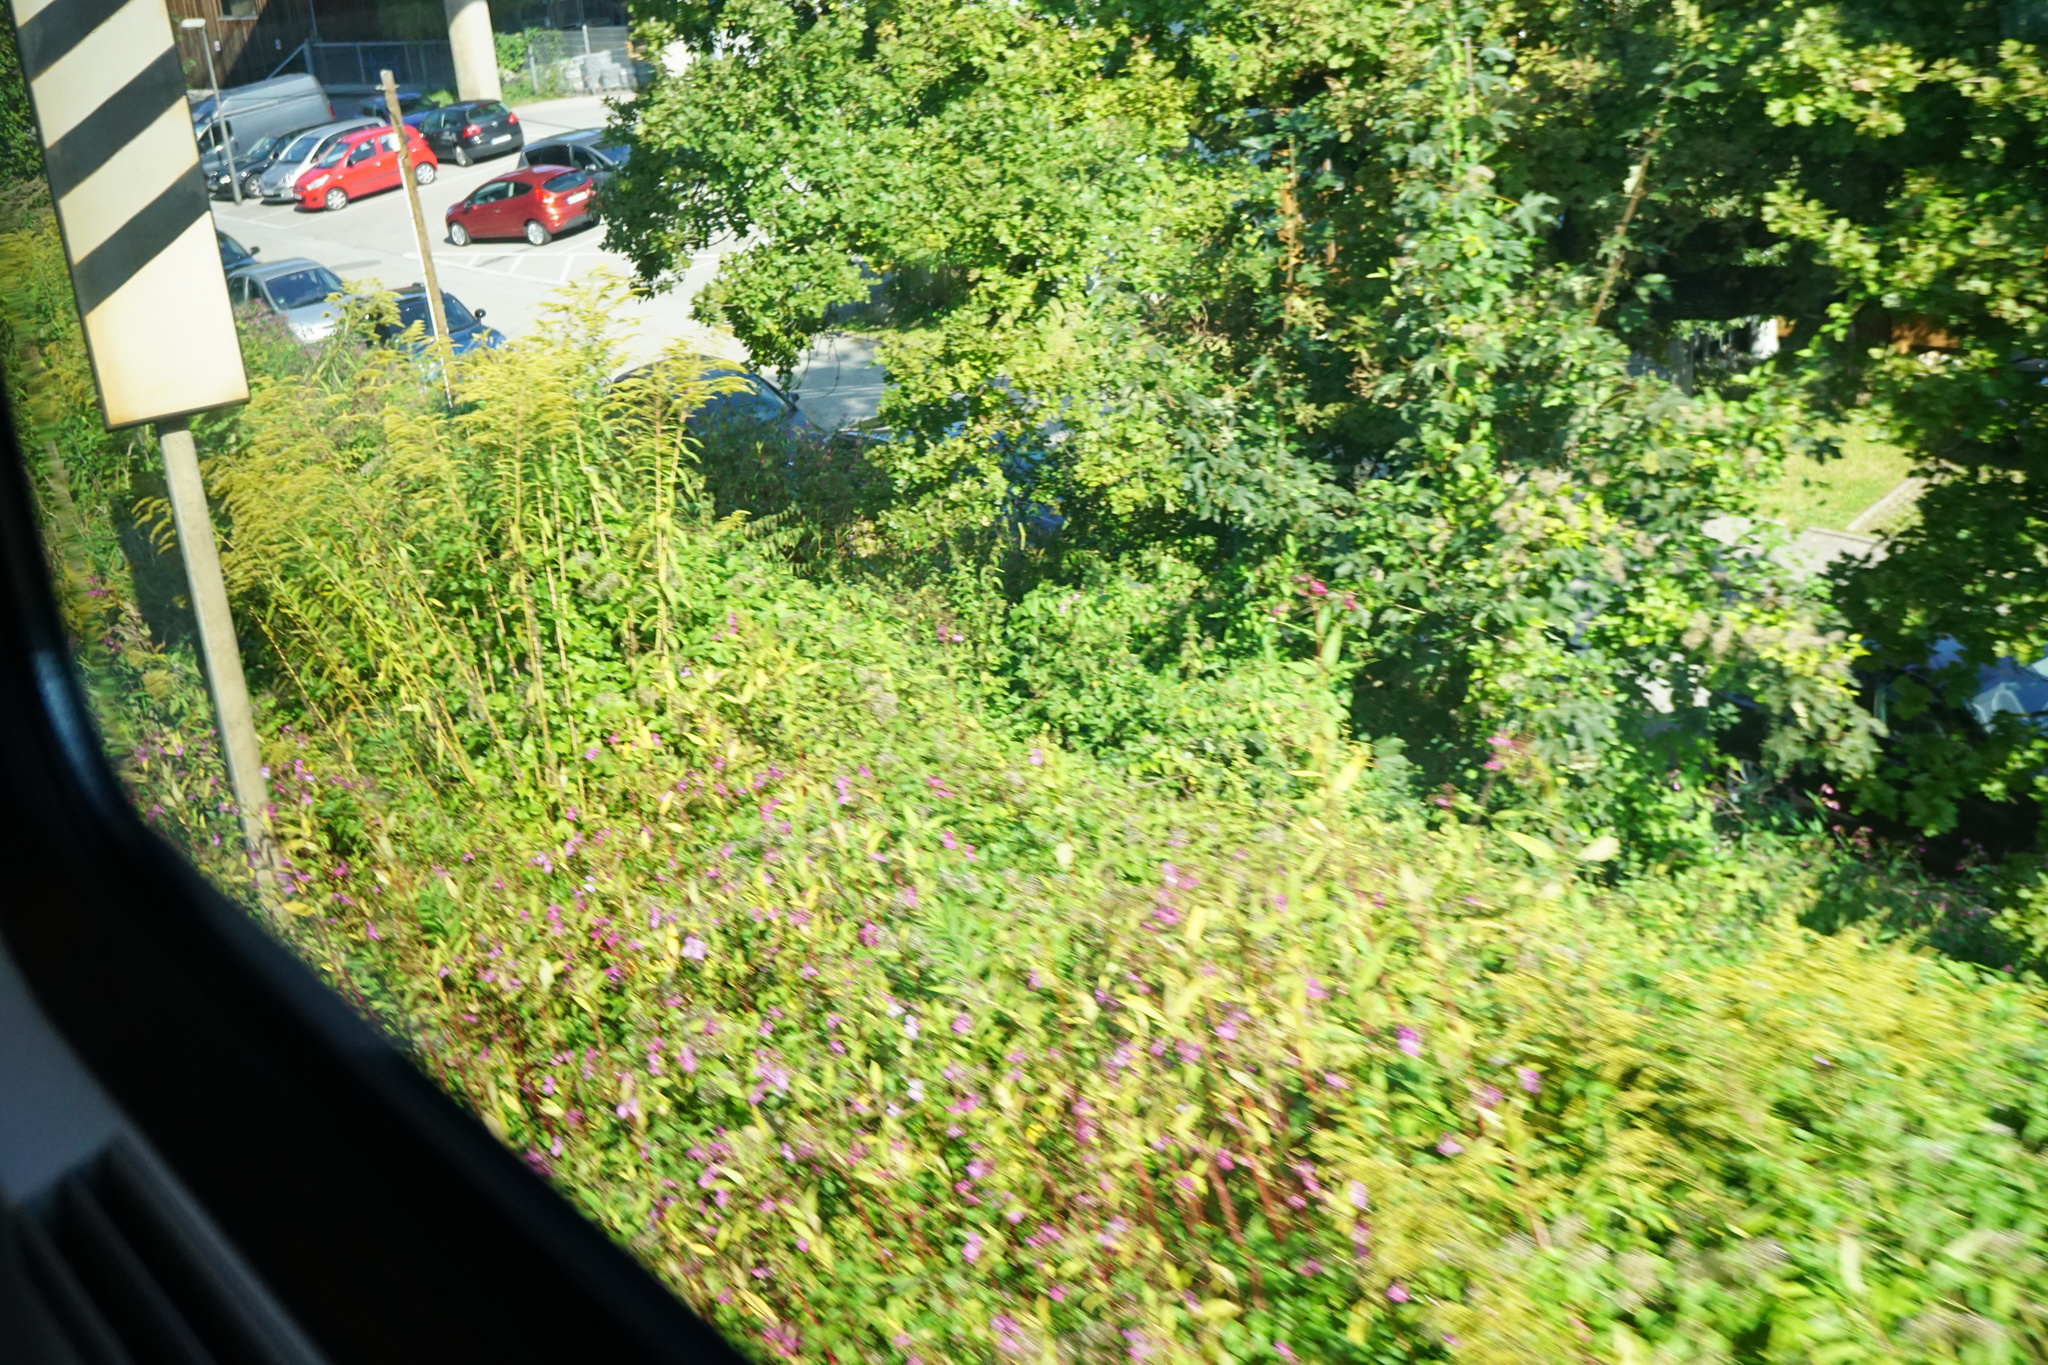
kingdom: Plantae
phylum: Tracheophyta
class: Magnoliopsida
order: Ericales
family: Balsaminaceae
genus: Impatiens
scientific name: Impatiens glandulifera
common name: Himalayan balsam
